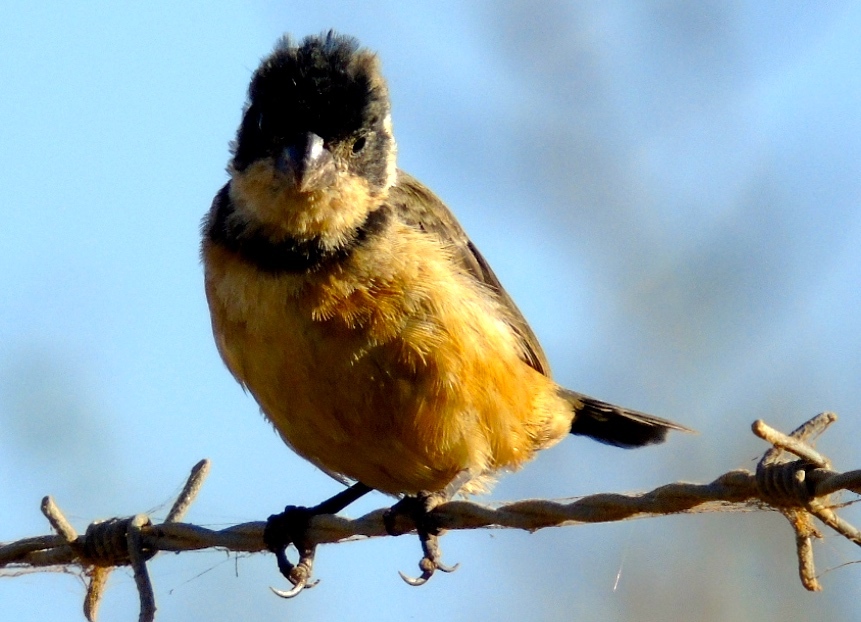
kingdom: Animalia
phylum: Chordata
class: Aves
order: Passeriformes
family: Thraupidae
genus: Sporophila
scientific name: Sporophila torqueola
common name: White-collared seedeater
